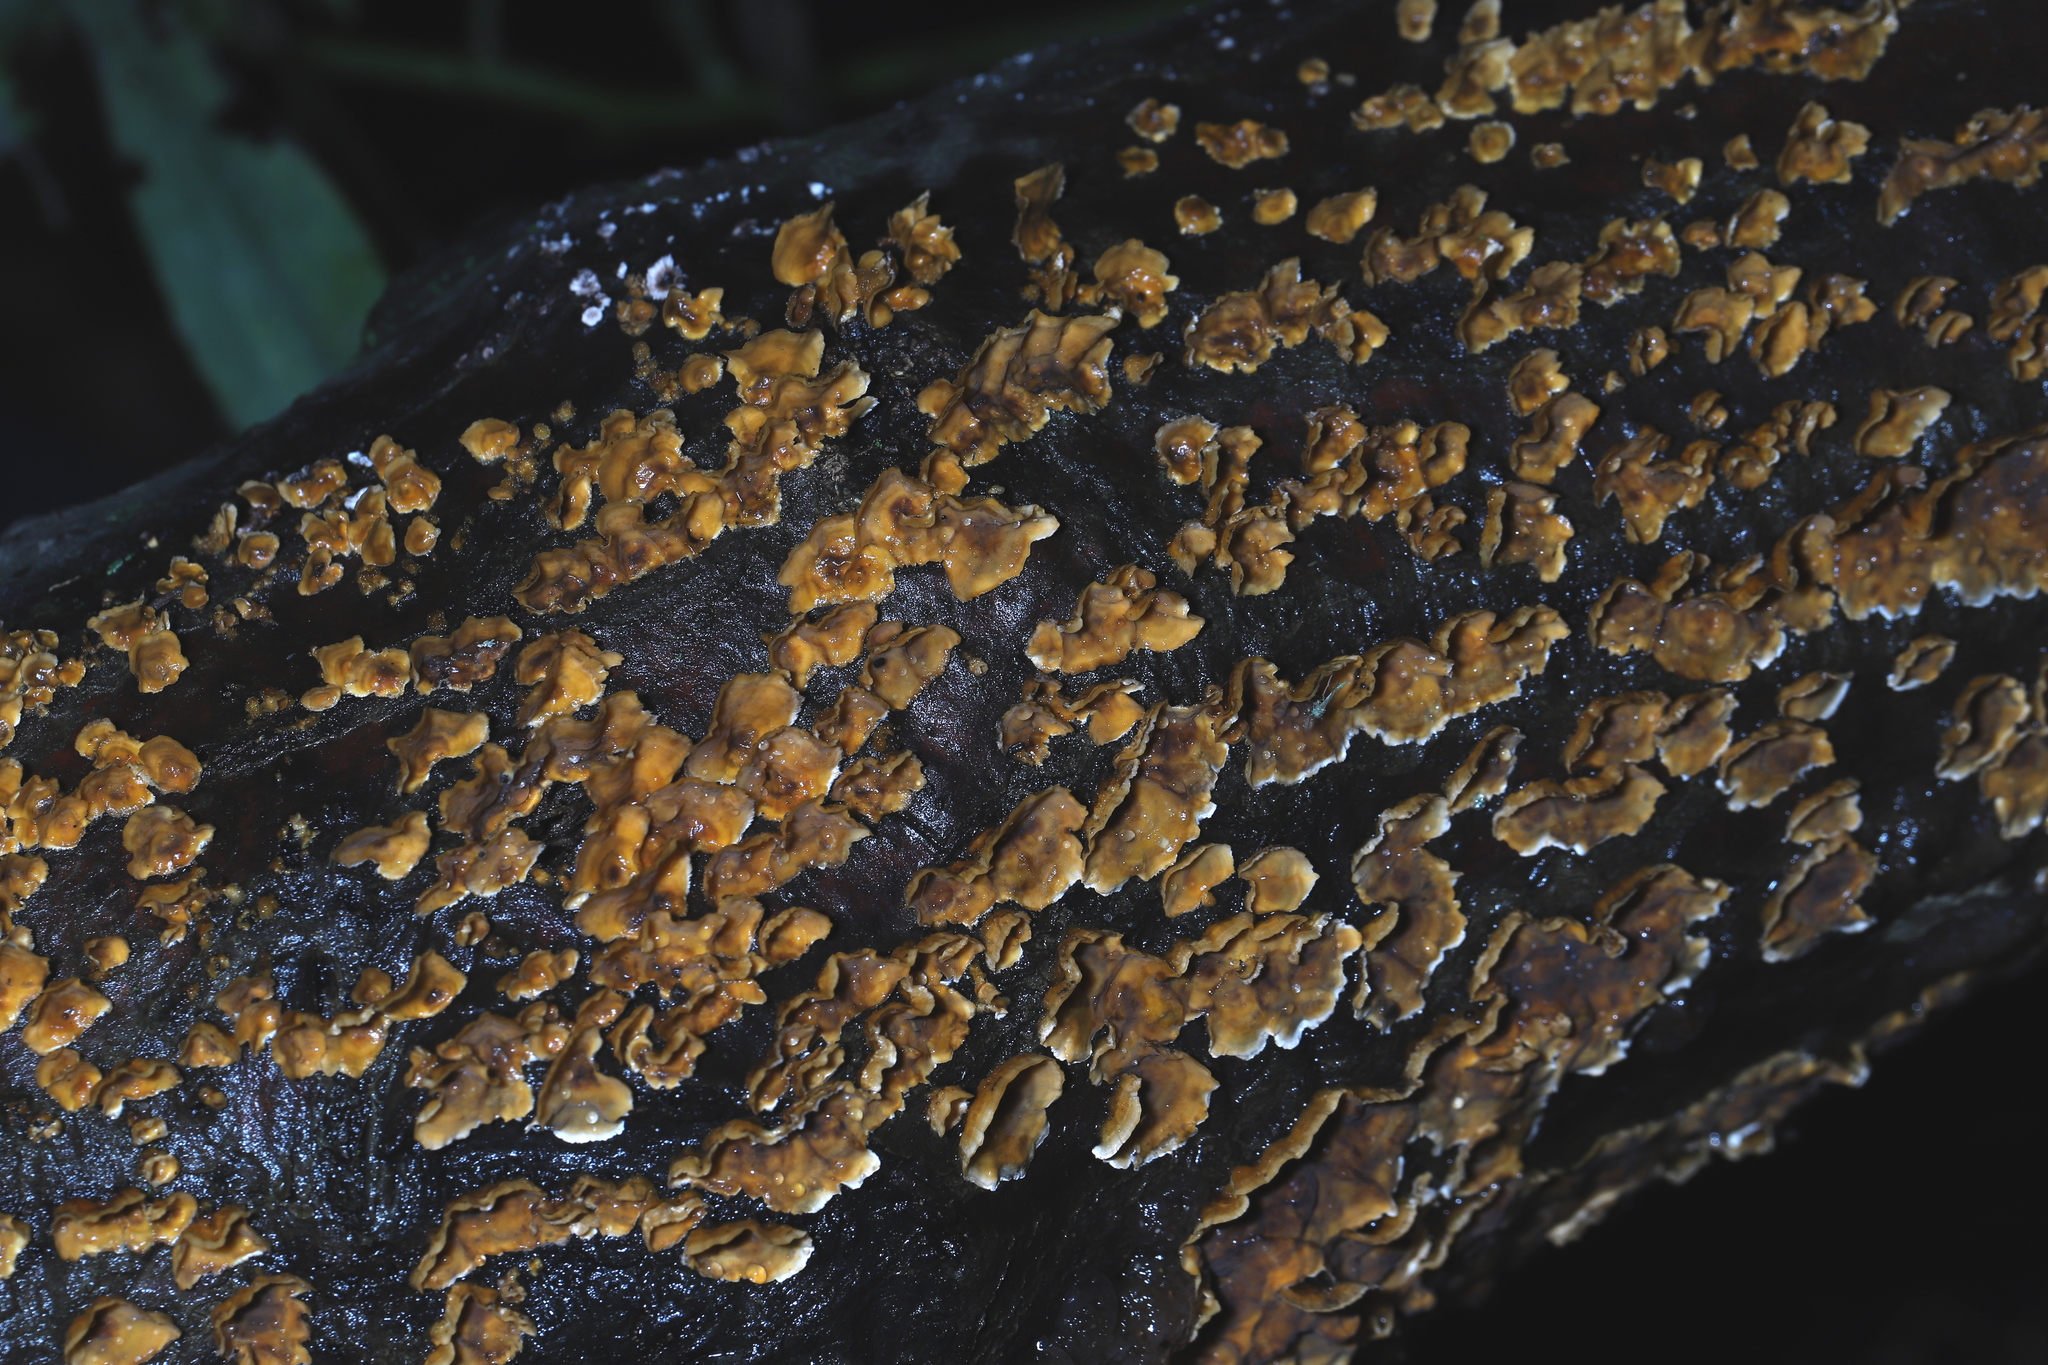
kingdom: Fungi
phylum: Basidiomycota
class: Agaricomycetes
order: Russulales
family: Stereaceae
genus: Stereum
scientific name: Stereum complicatum
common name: Crowded parchment
